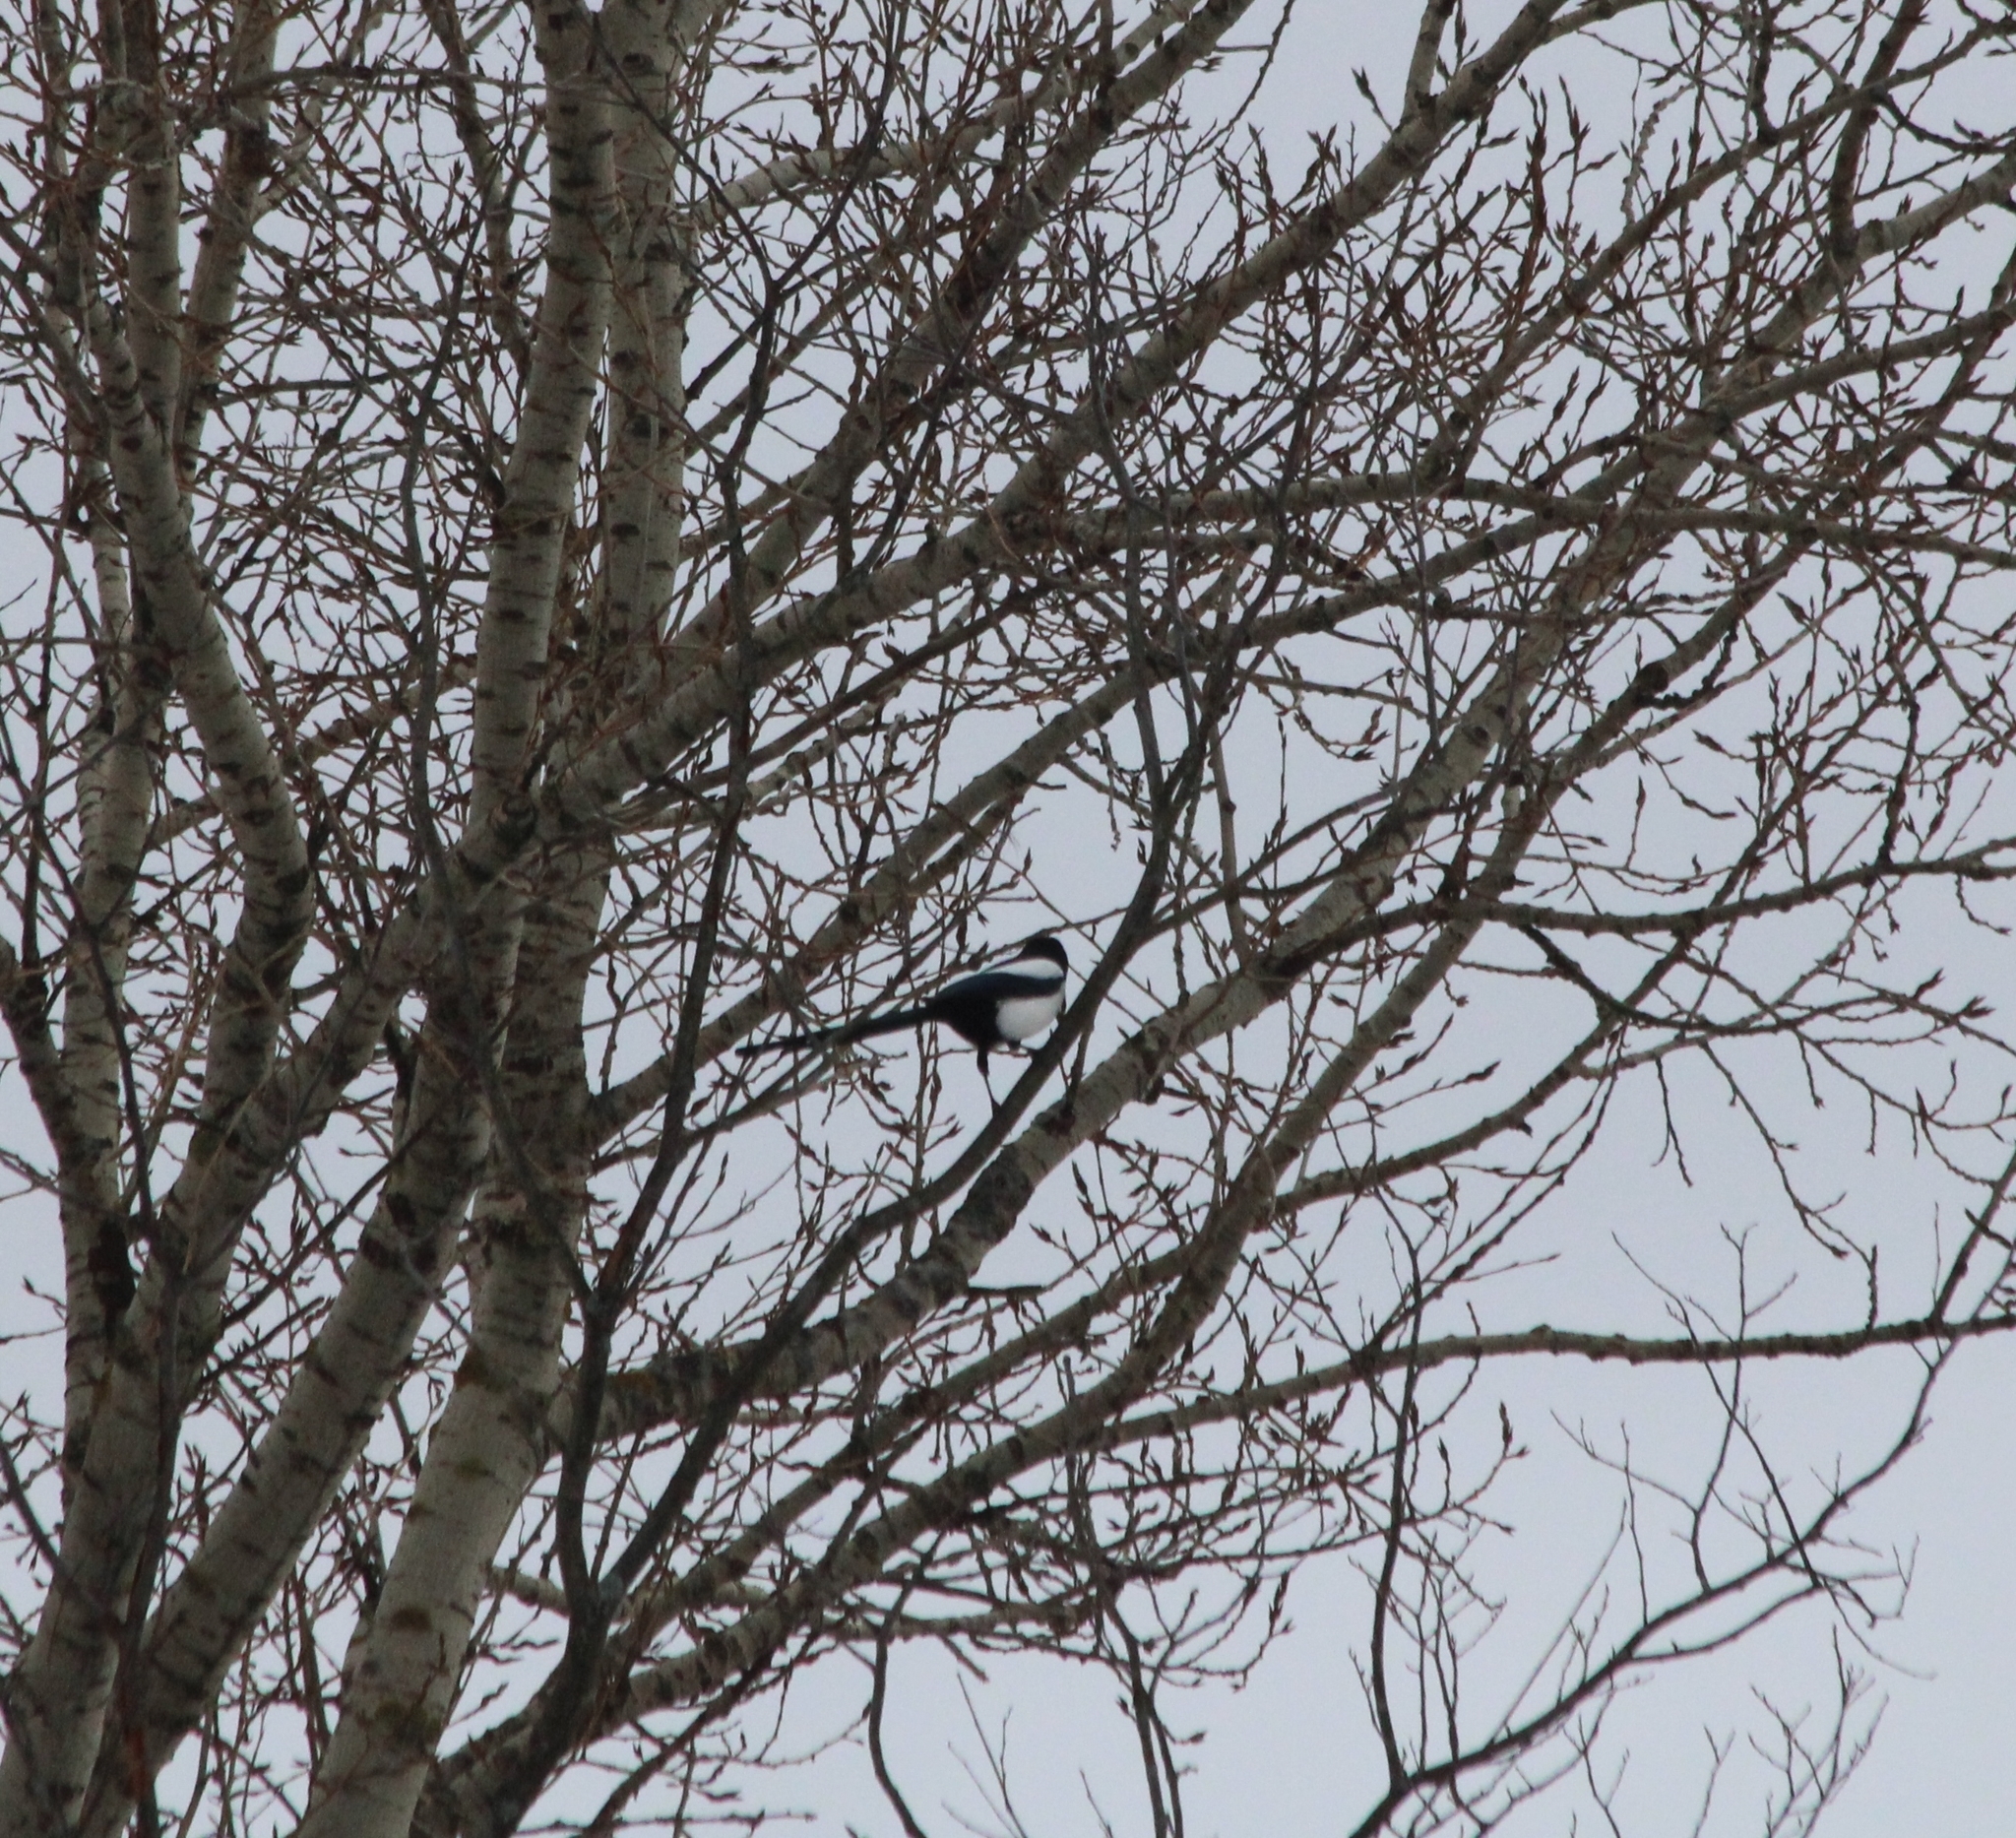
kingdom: Animalia
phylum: Chordata
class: Aves
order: Passeriformes
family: Corvidae
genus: Pica
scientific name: Pica pica
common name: Eurasian magpie
